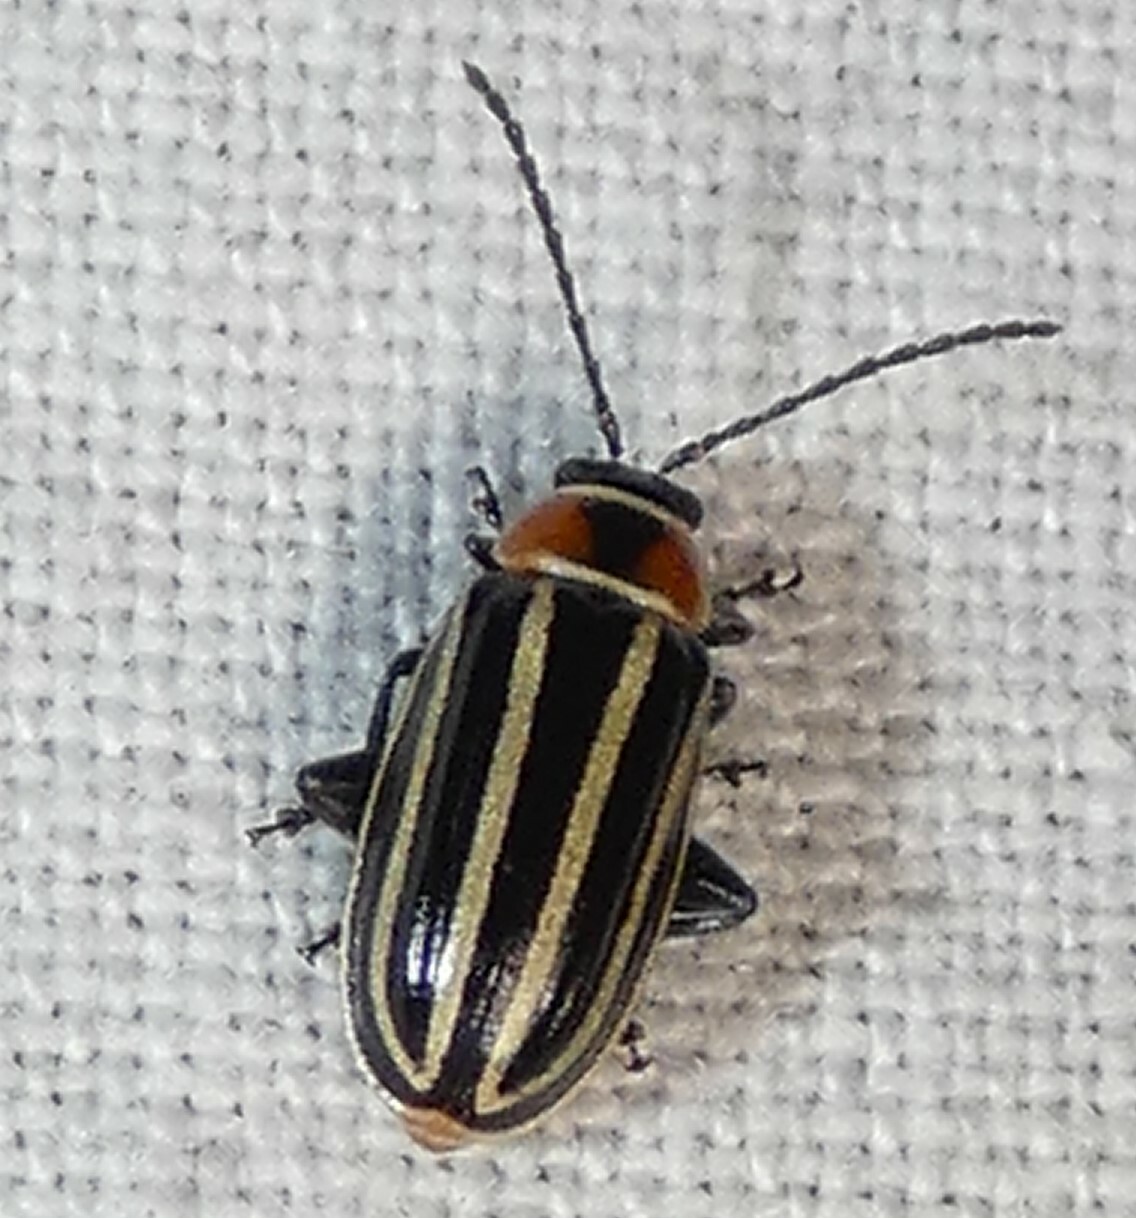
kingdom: Animalia
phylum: Arthropoda
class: Insecta
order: Coleoptera
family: Chrysomelidae
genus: Disonycha
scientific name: Disonycha pensylvanica
